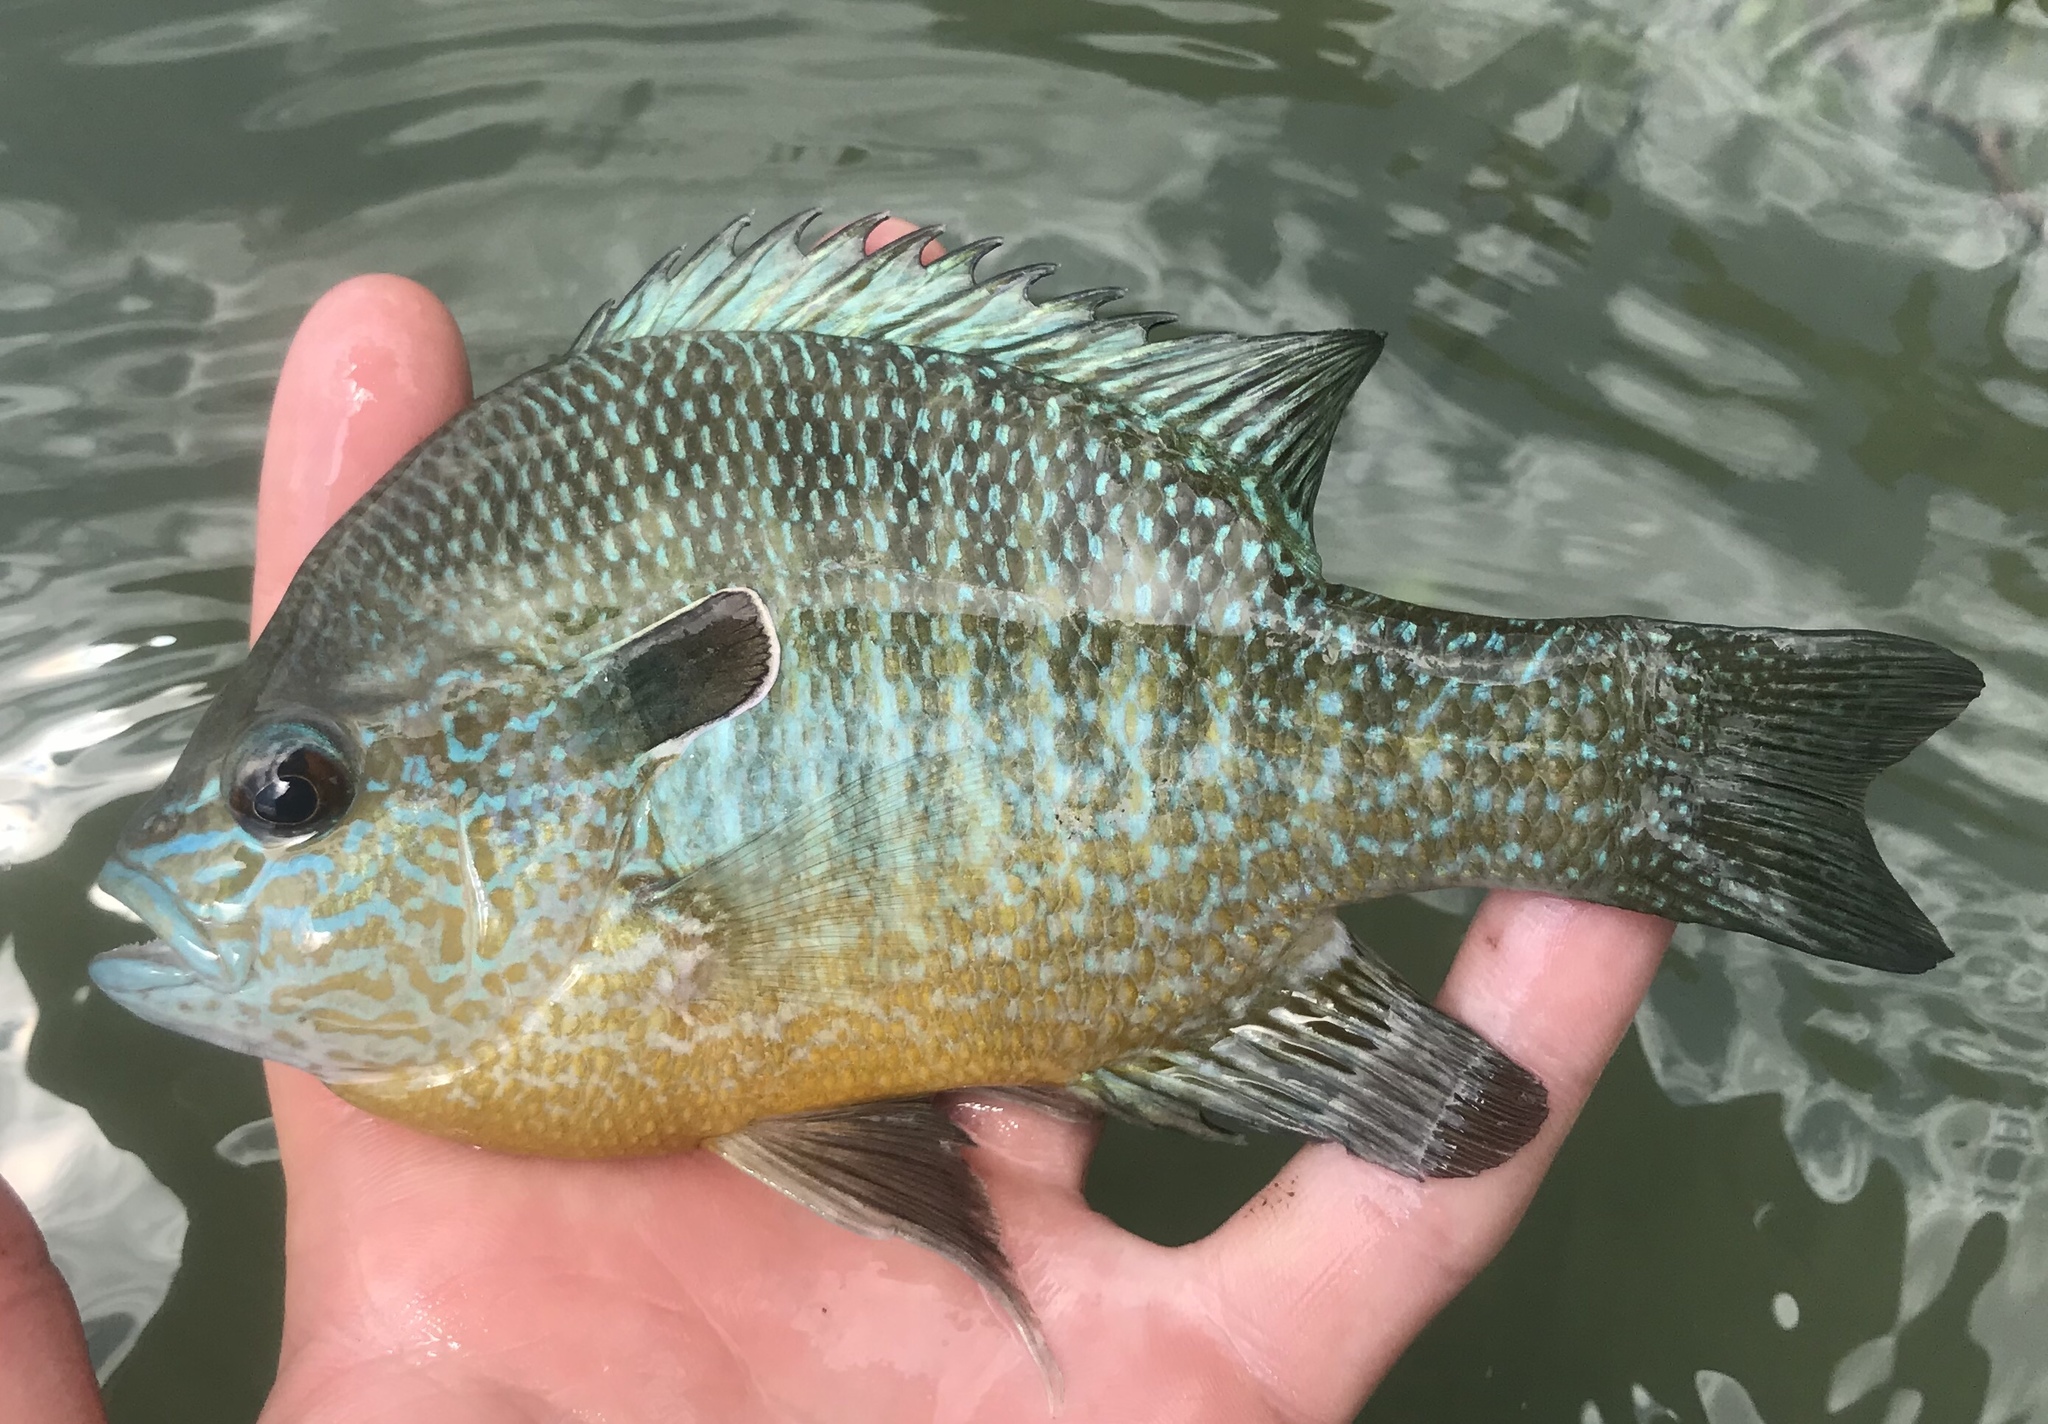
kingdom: Animalia
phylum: Chordata
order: Perciformes
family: Centrarchidae
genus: Lepomis
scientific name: Lepomis megalotis
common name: Longear sunfish
